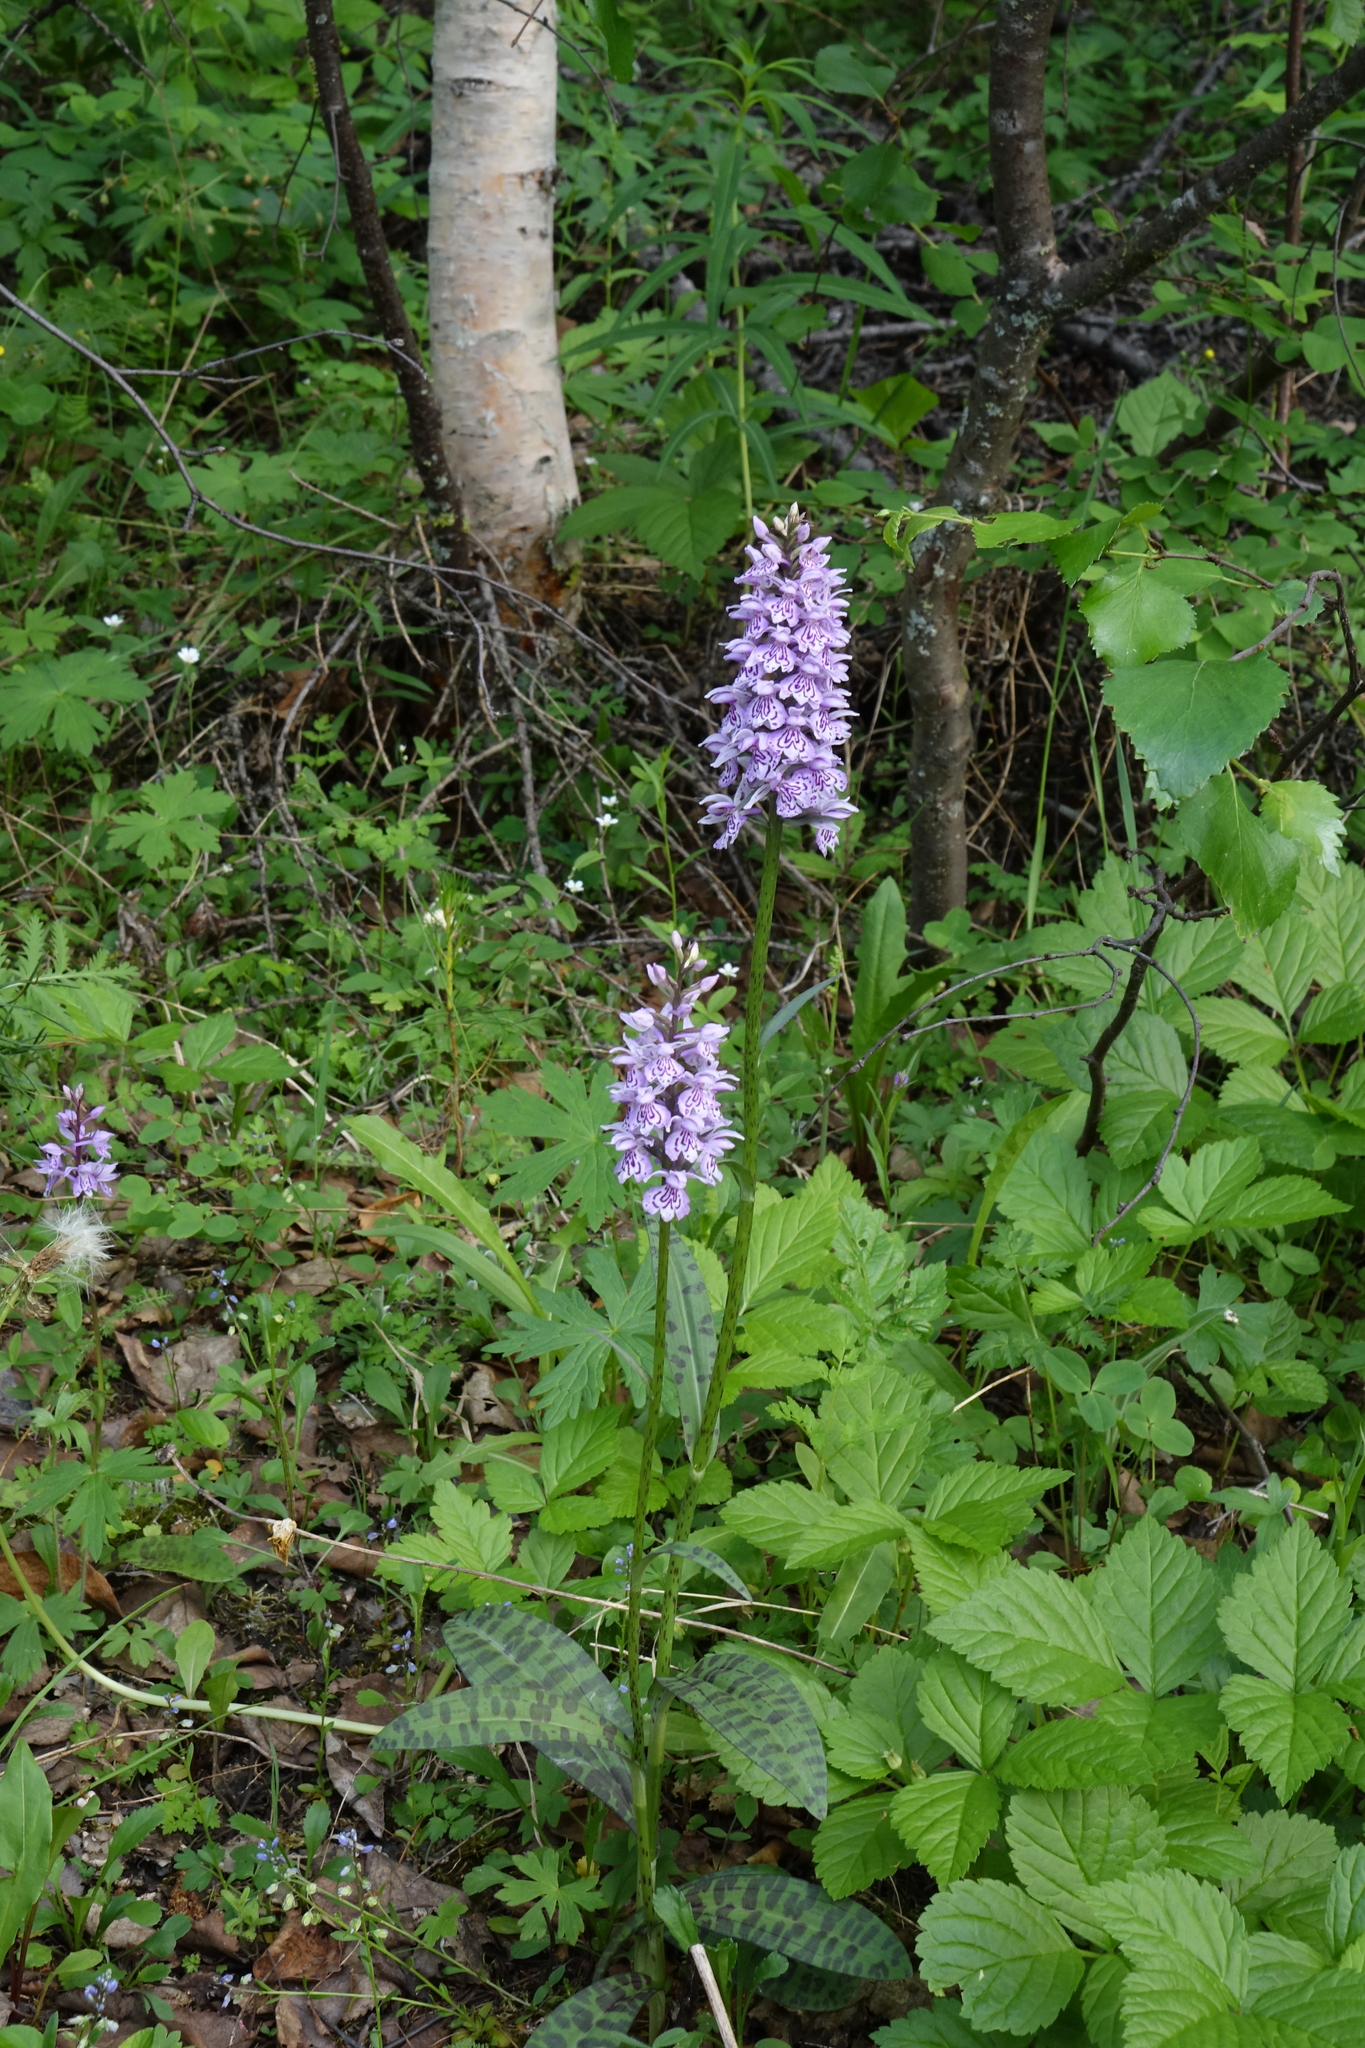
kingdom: Plantae
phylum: Tracheophyta
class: Liliopsida
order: Asparagales
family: Orchidaceae
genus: Dactylorhiza
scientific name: Dactylorhiza maculata
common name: Heath spotted-orchid
